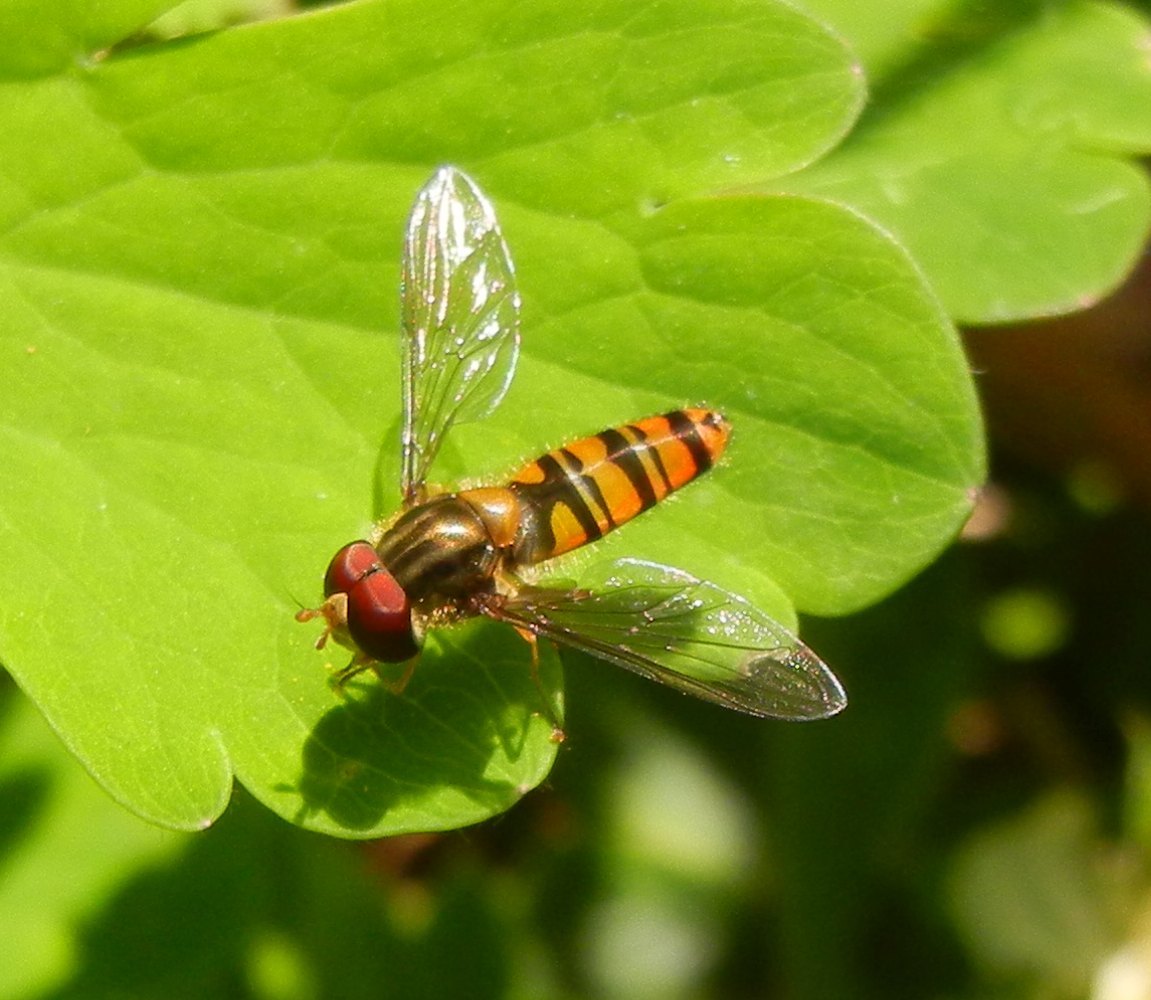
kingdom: Animalia
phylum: Arthropoda
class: Insecta
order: Diptera
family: Syrphidae
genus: Episyrphus
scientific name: Episyrphus balteatus
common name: Marmalade hoverfly
